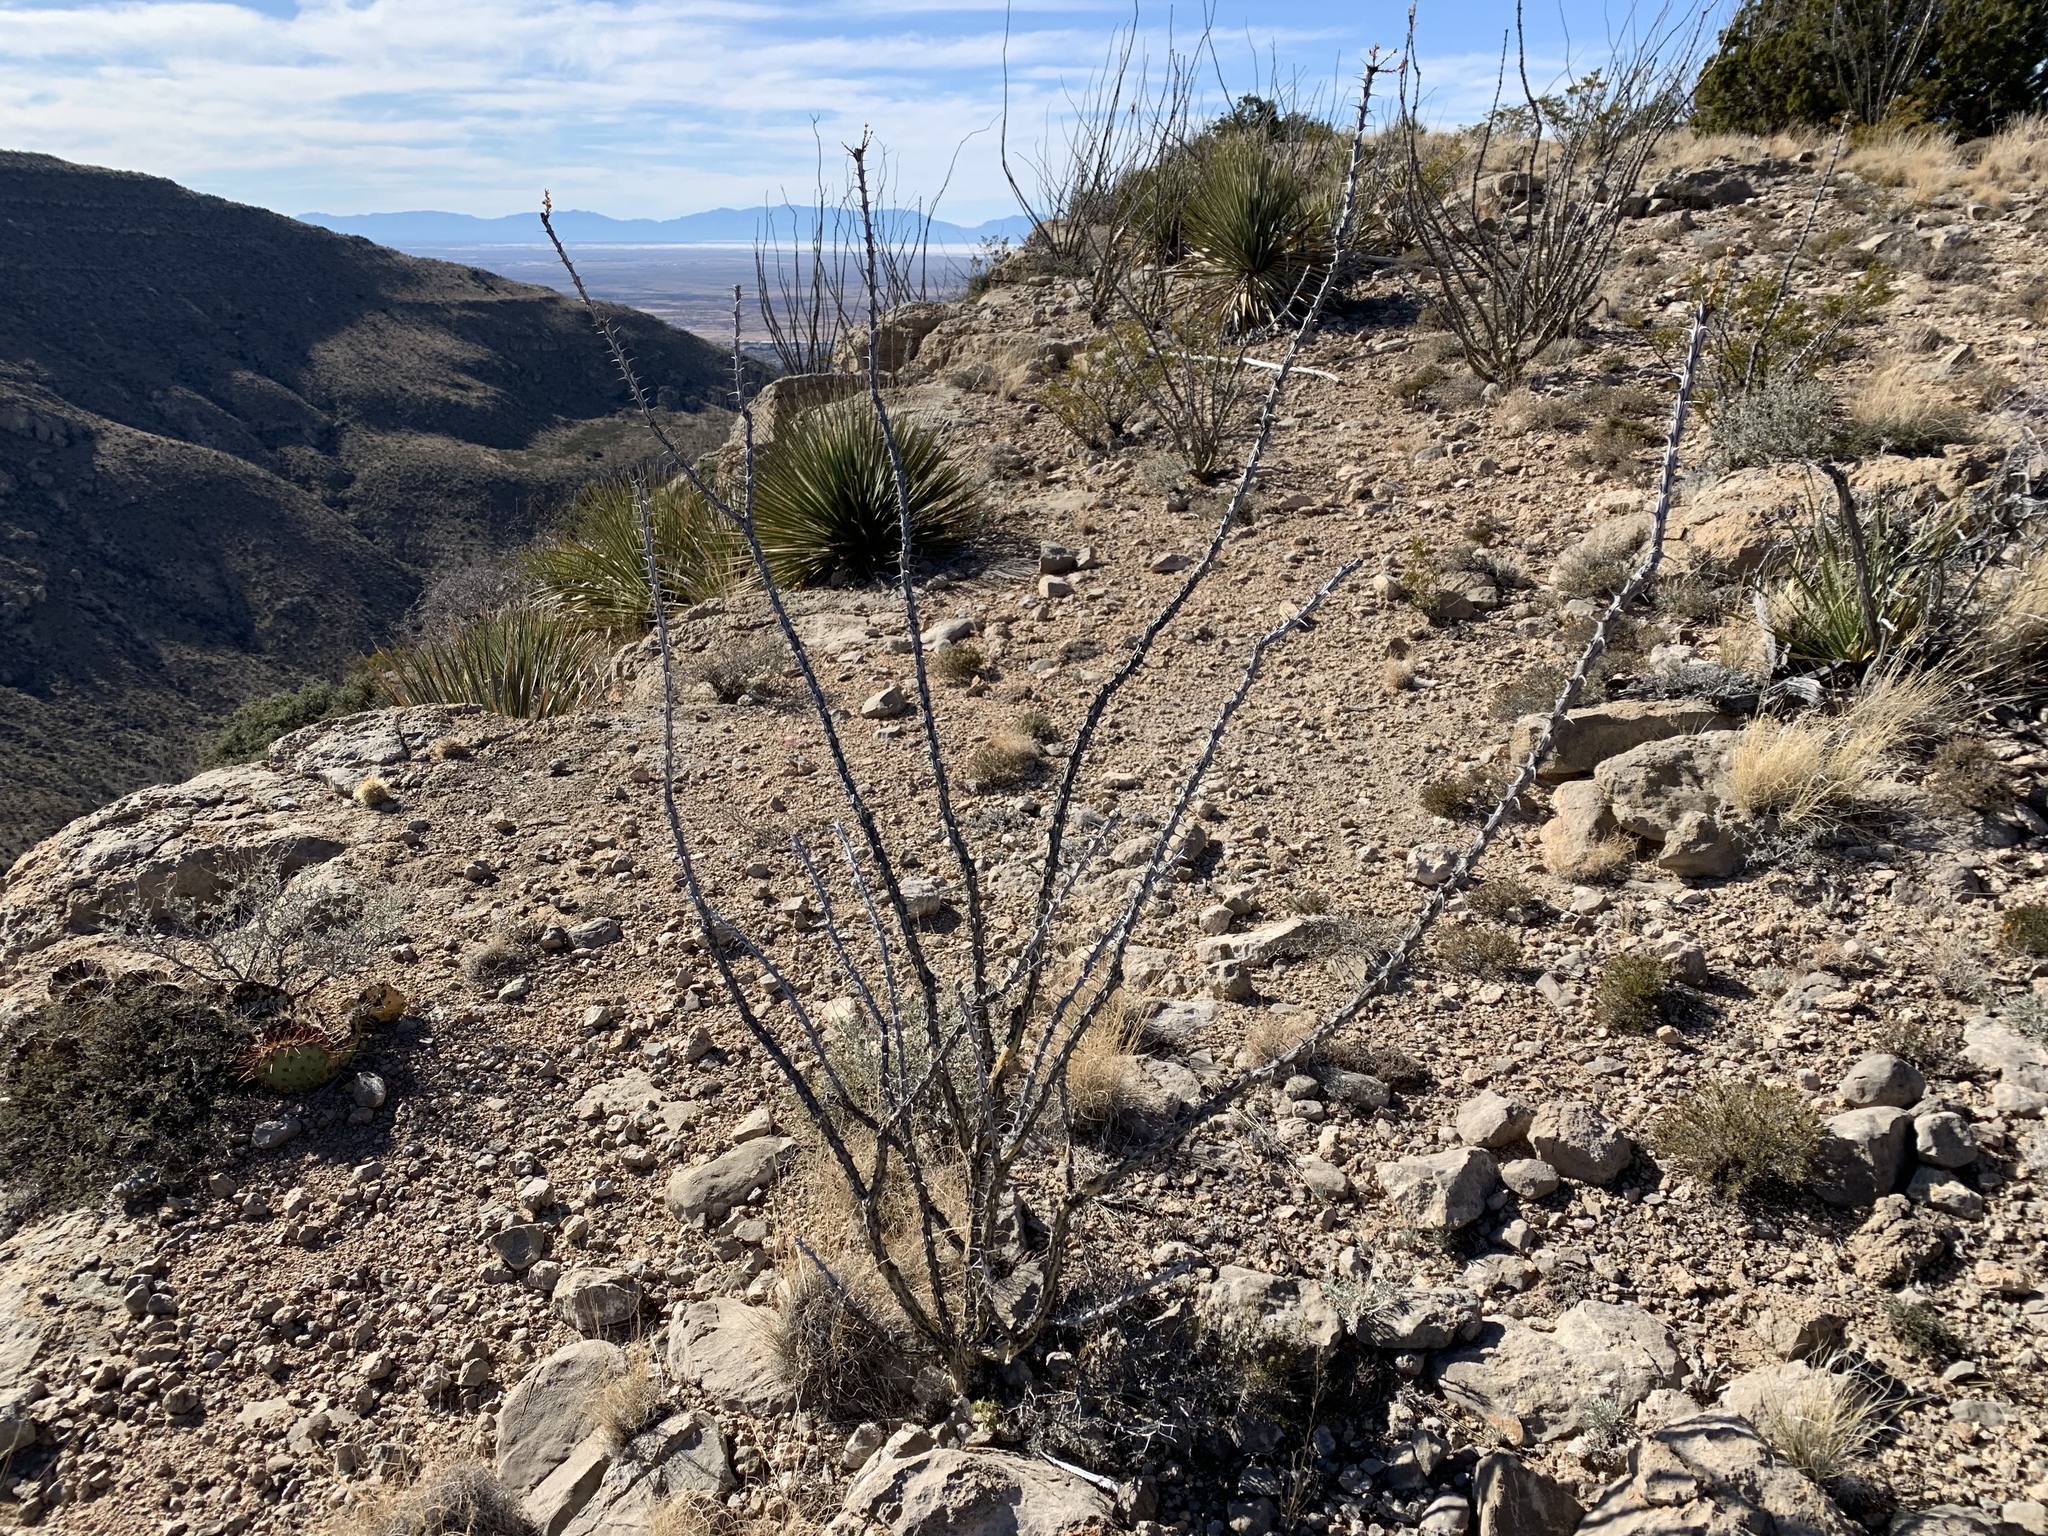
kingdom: Plantae
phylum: Tracheophyta
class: Magnoliopsida
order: Ericales
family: Fouquieriaceae
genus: Fouquieria
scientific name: Fouquieria splendens
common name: Vine-cactus
